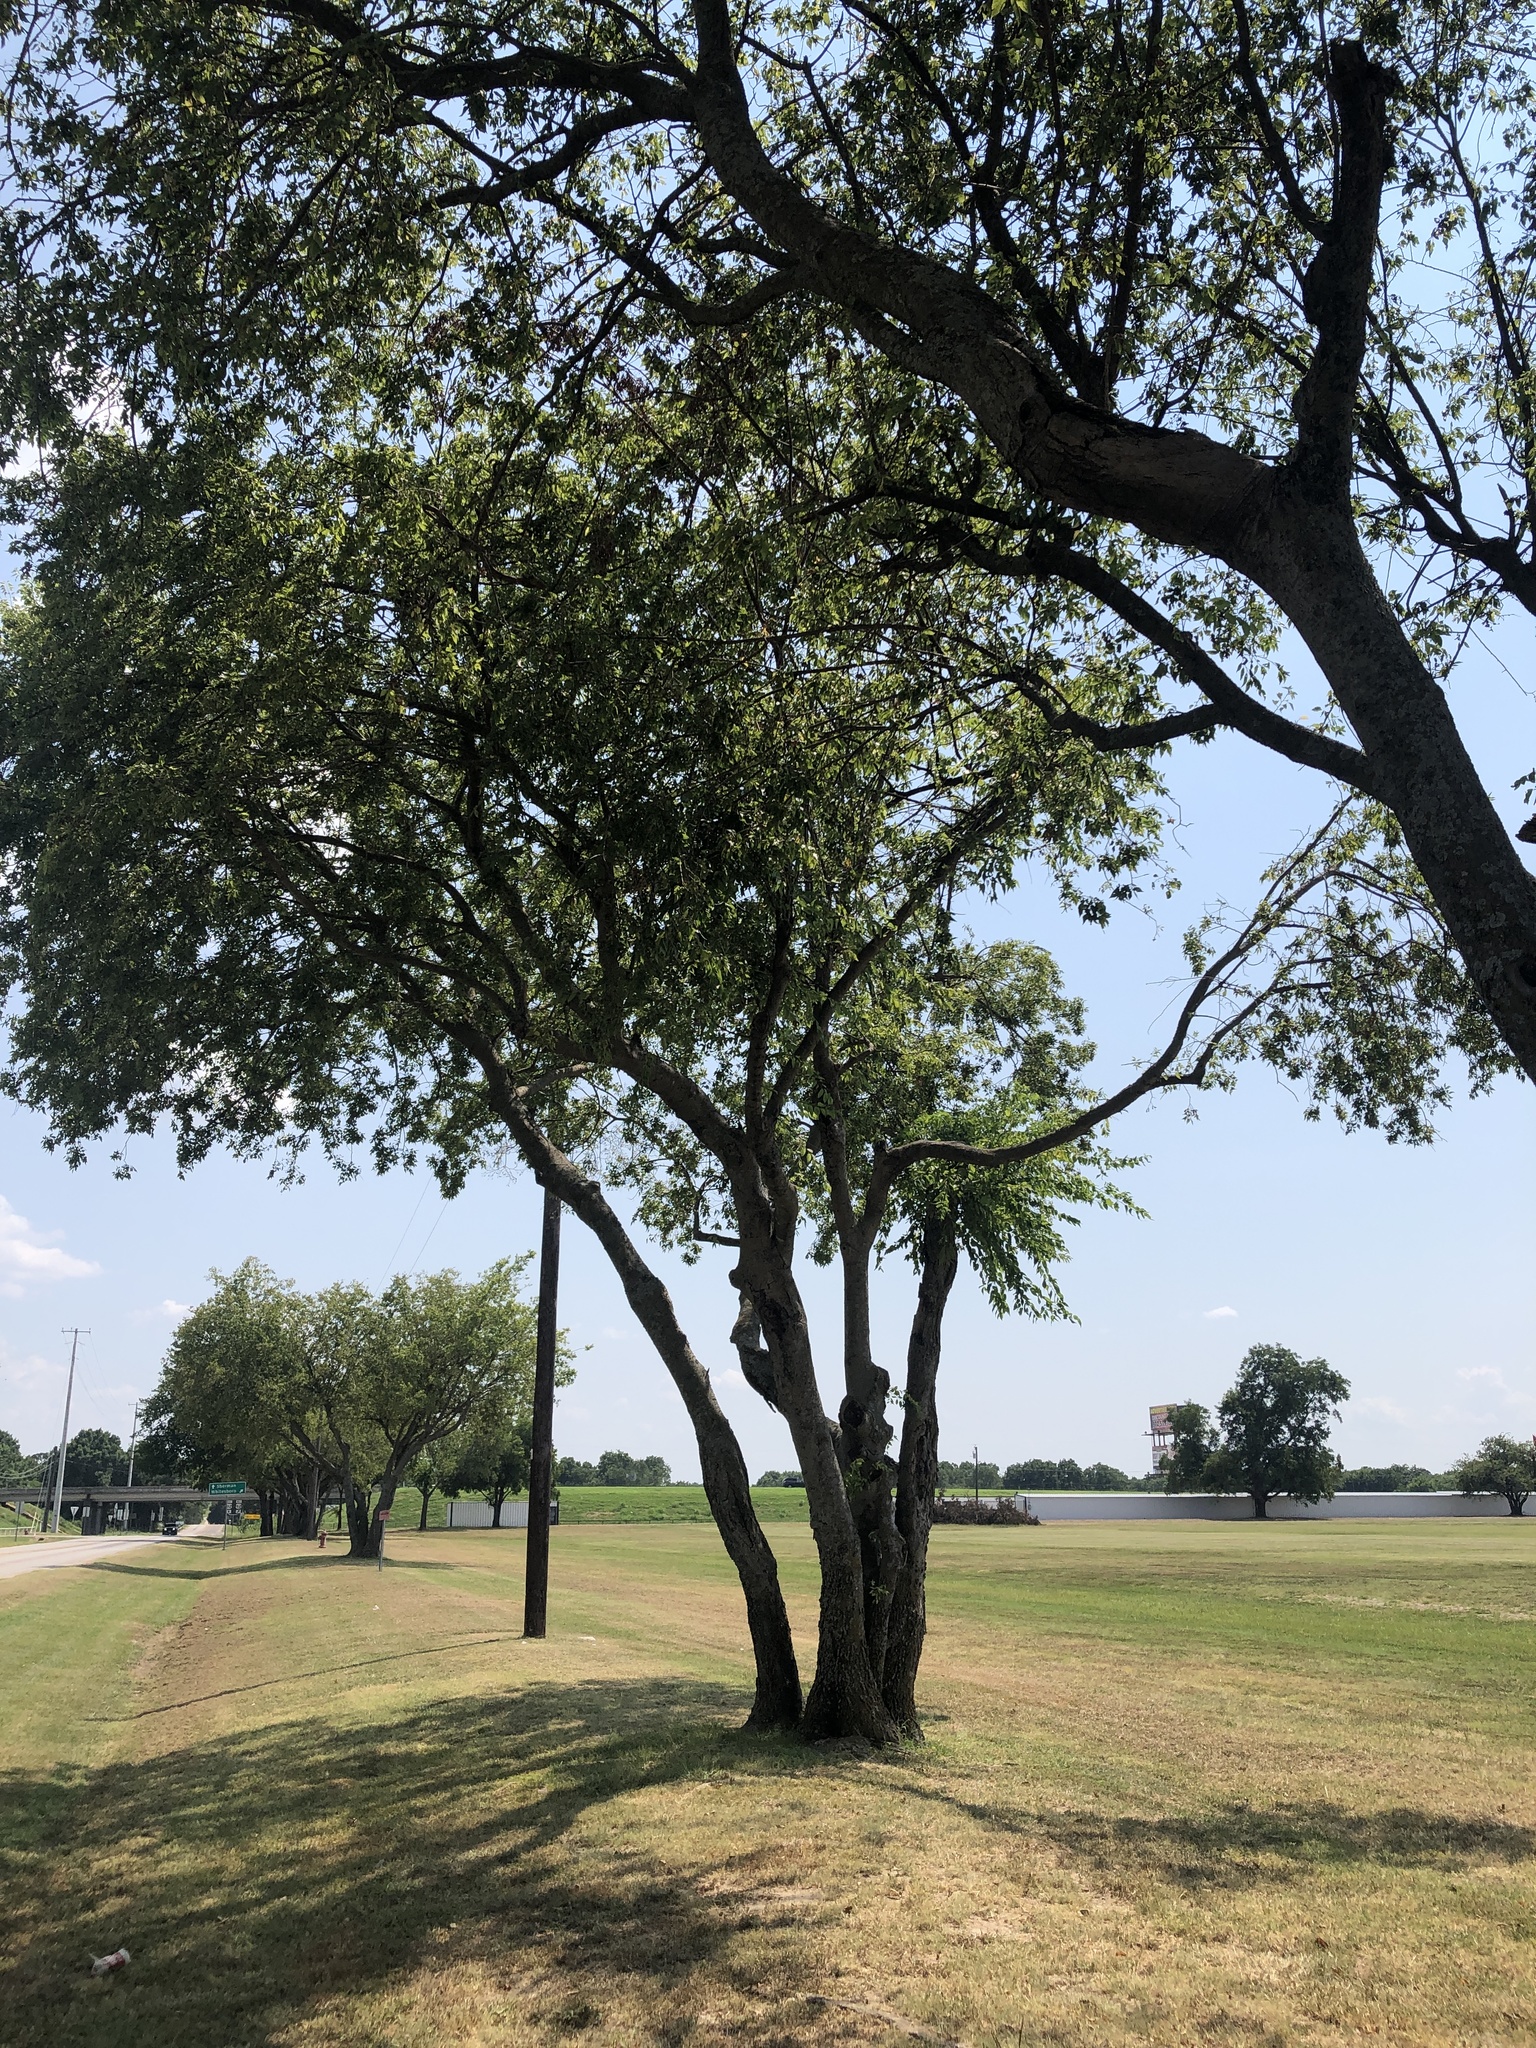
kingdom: Plantae
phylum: Tracheophyta
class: Magnoliopsida
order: Rosales
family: Cannabaceae
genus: Celtis
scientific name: Celtis laevigata
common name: Sugarberry
